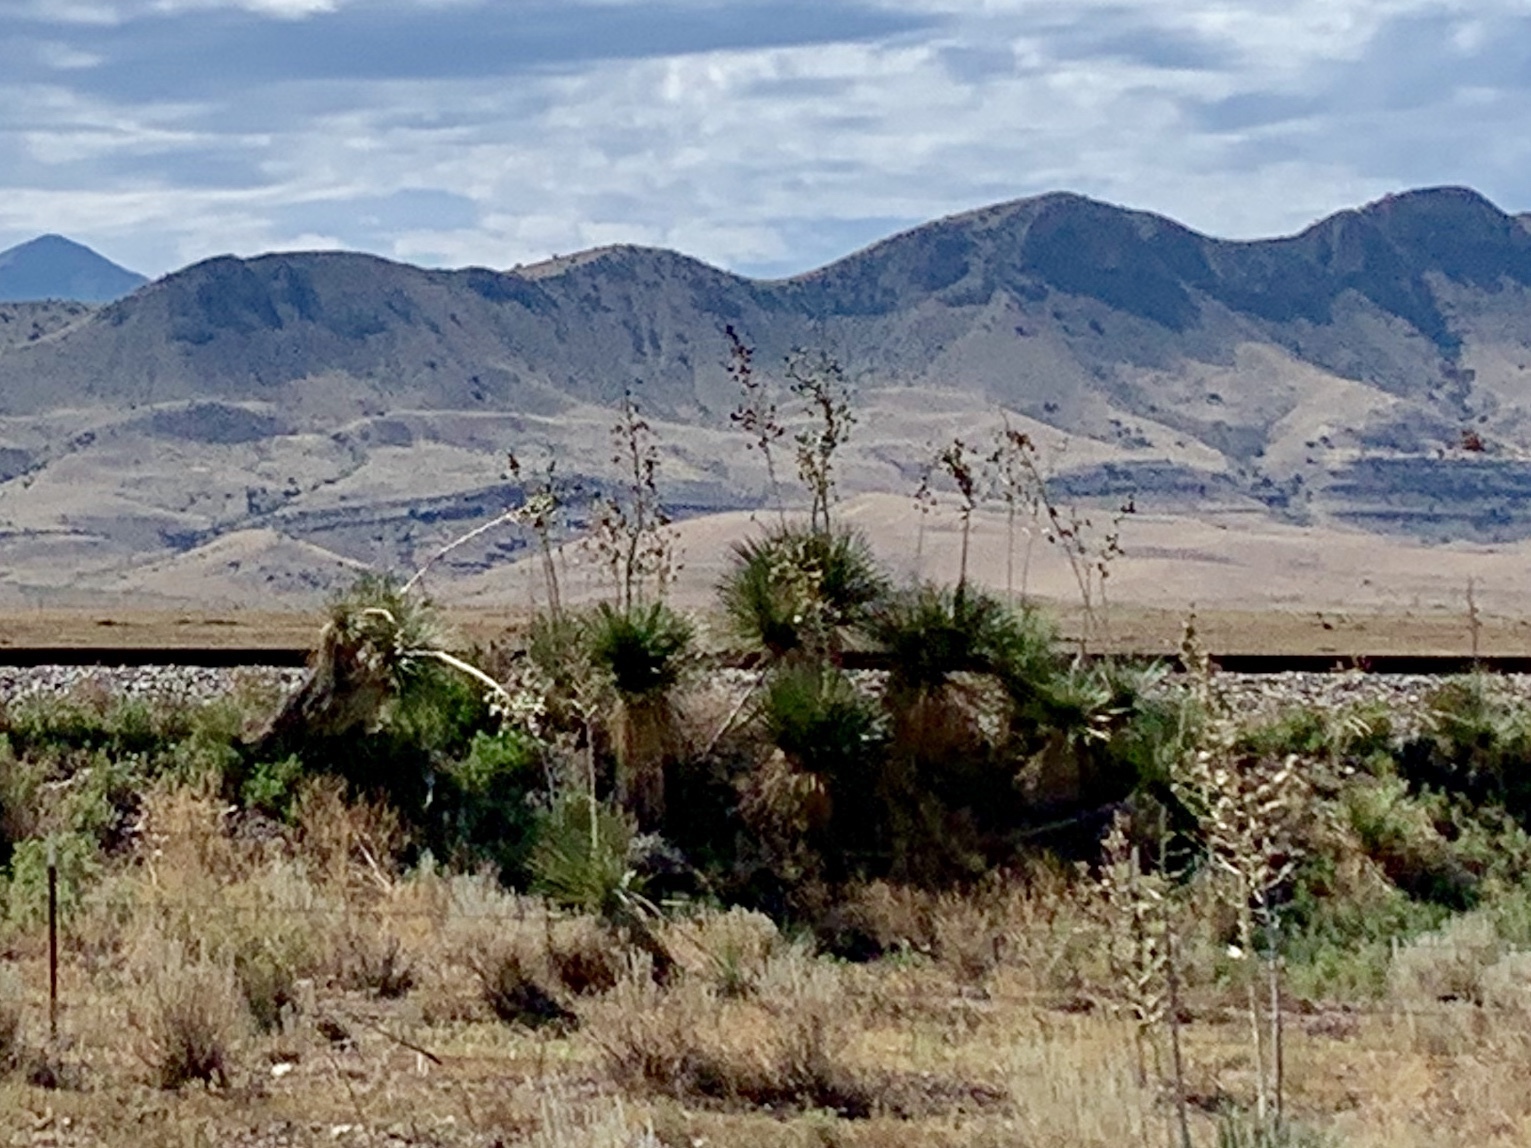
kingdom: Plantae
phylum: Tracheophyta
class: Liliopsida
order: Asparagales
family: Asparagaceae
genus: Yucca
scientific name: Yucca elata
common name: Palmella
